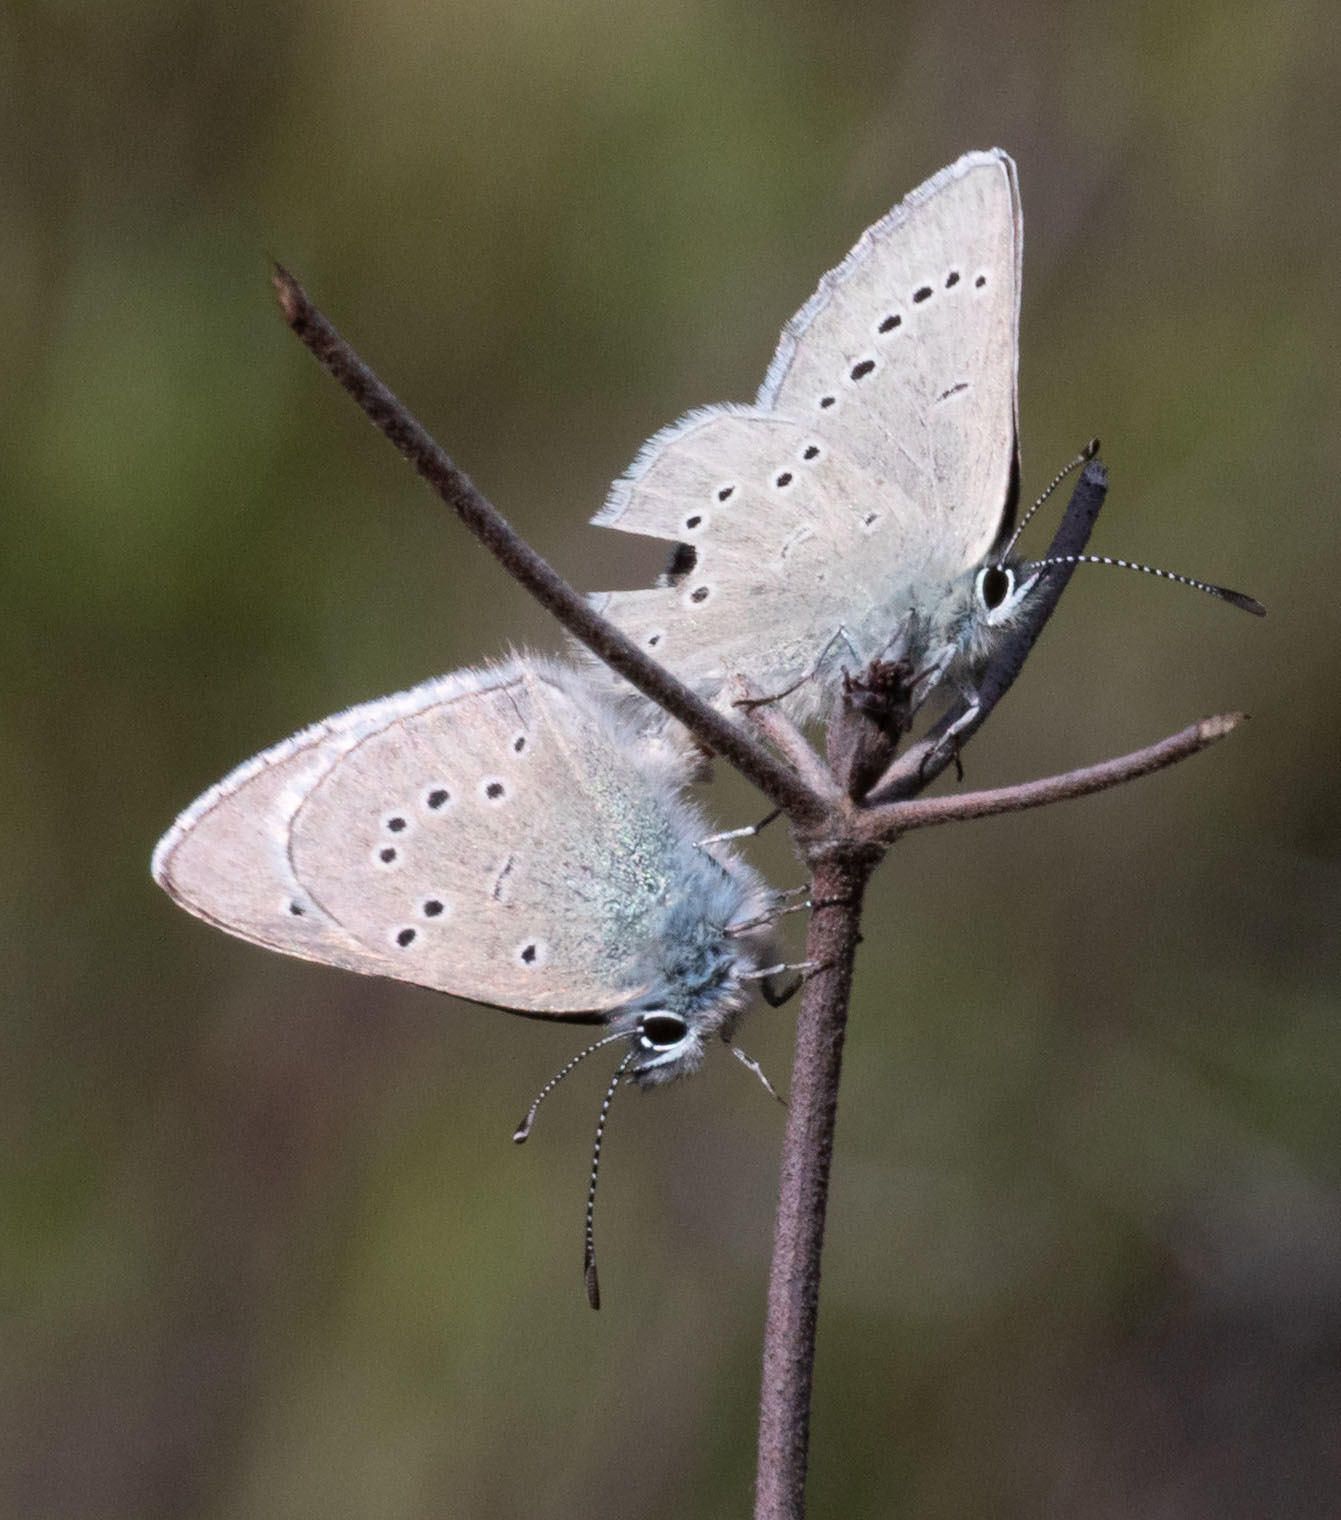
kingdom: Animalia
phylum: Arthropoda
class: Insecta
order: Lepidoptera
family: Lycaenidae
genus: Glaucopsyche
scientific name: Glaucopsyche lygdamus
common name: Silvery blue
